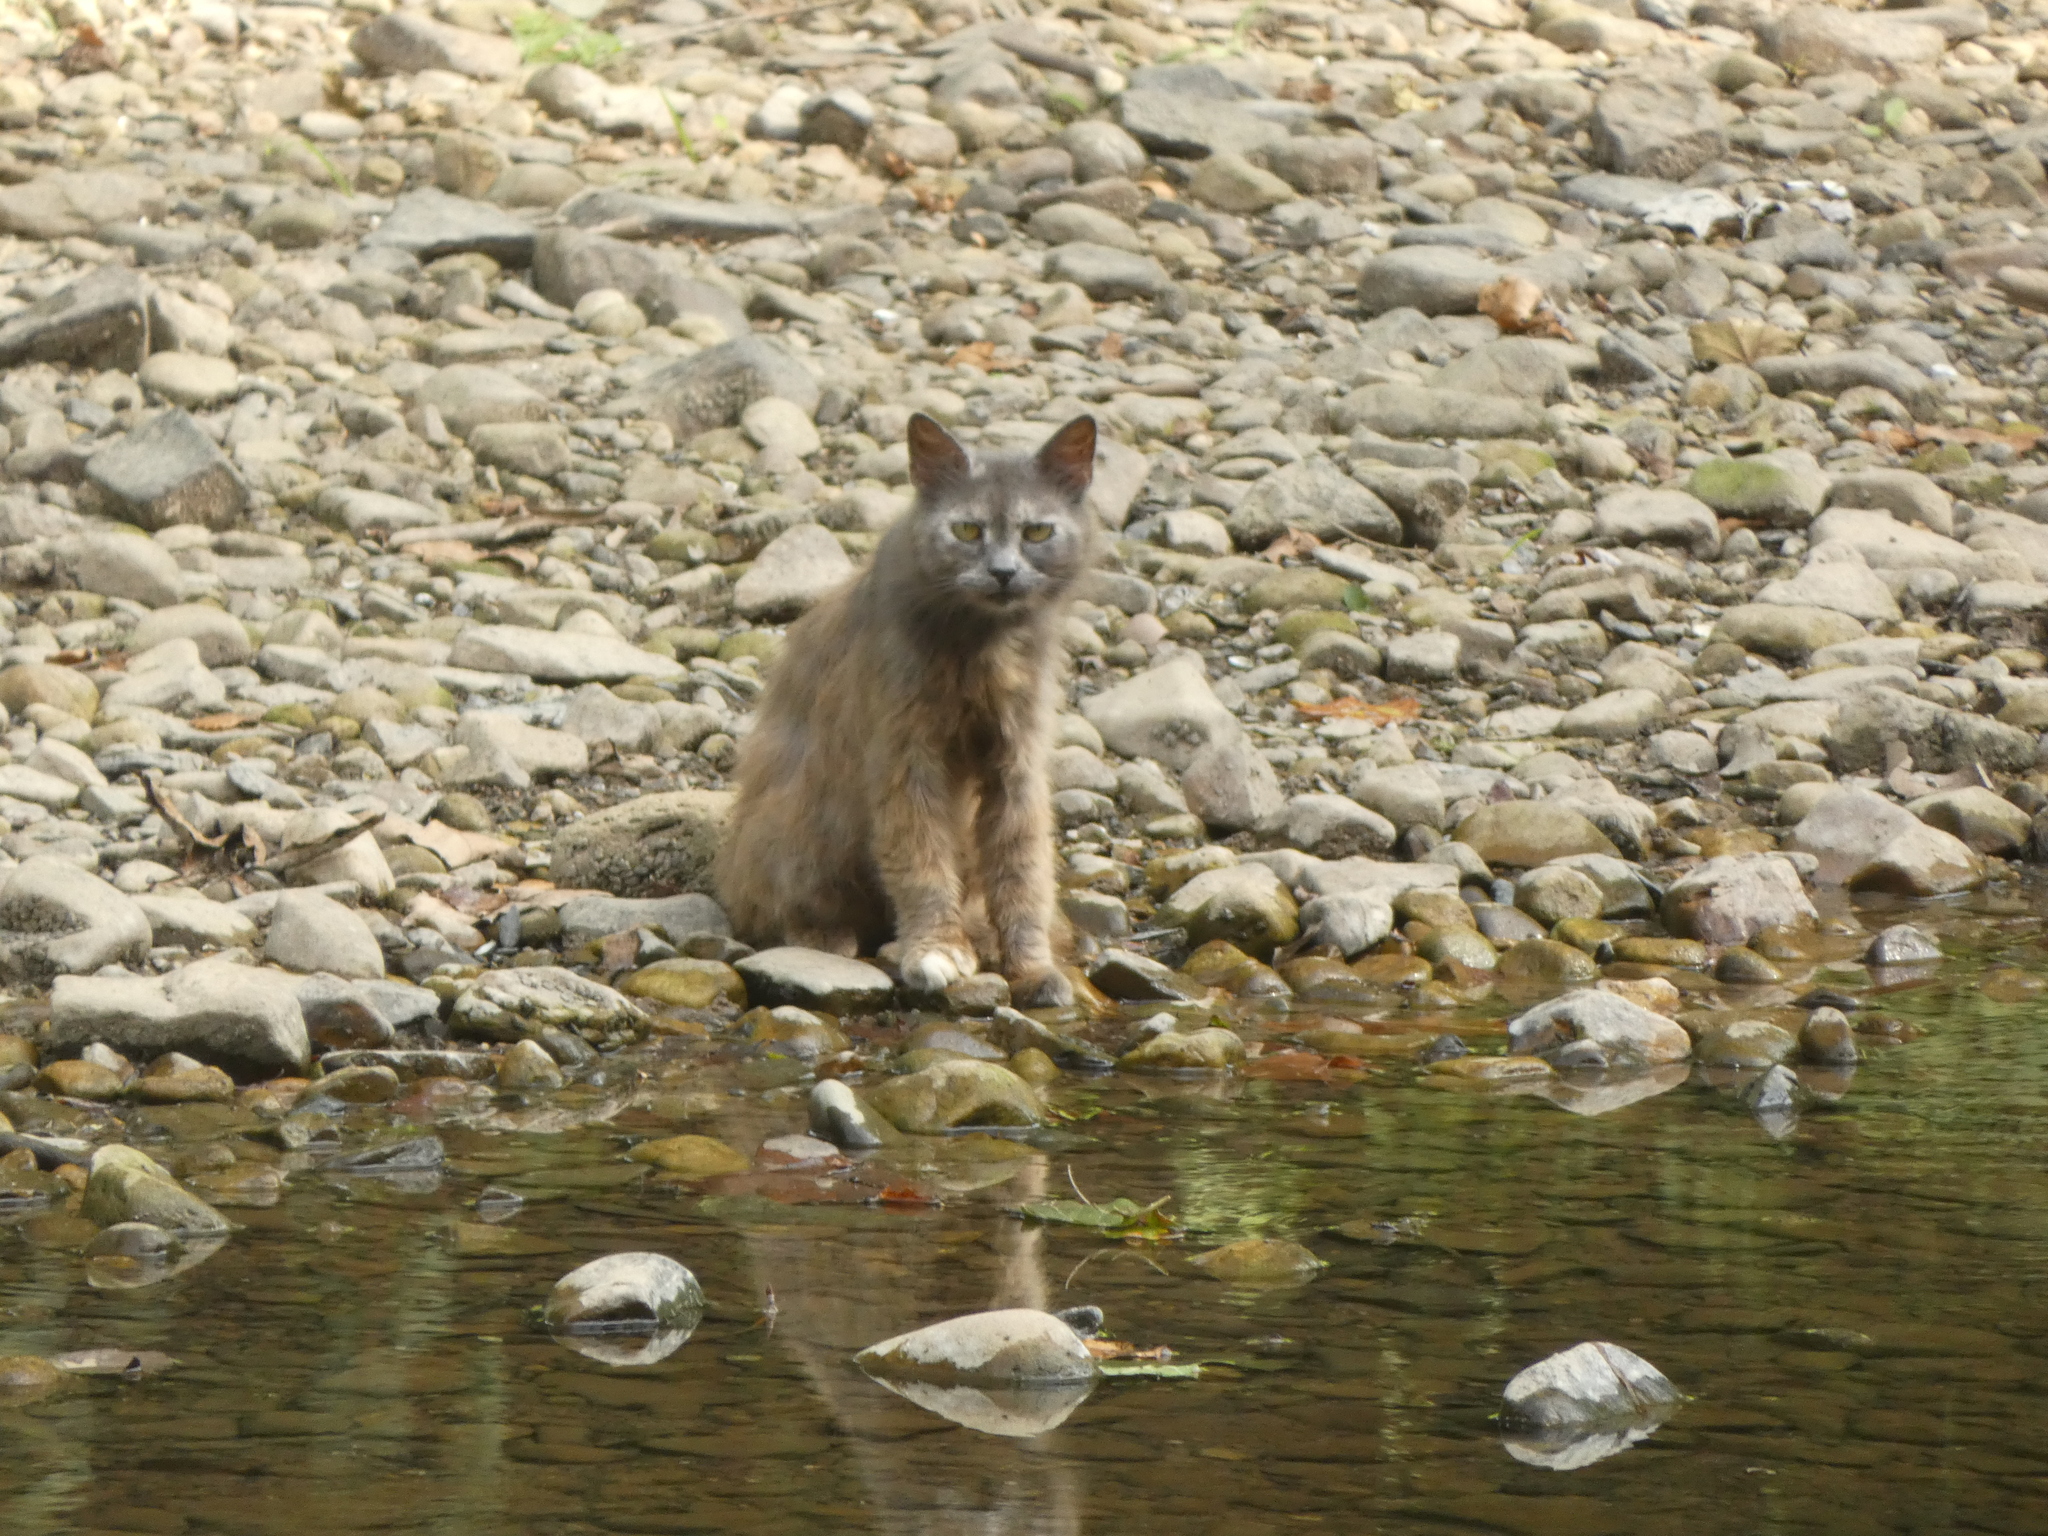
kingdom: Animalia
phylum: Chordata
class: Mammalia
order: Carnivora
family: Felidae
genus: Felis
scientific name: Felis catus
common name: Domestic cat
